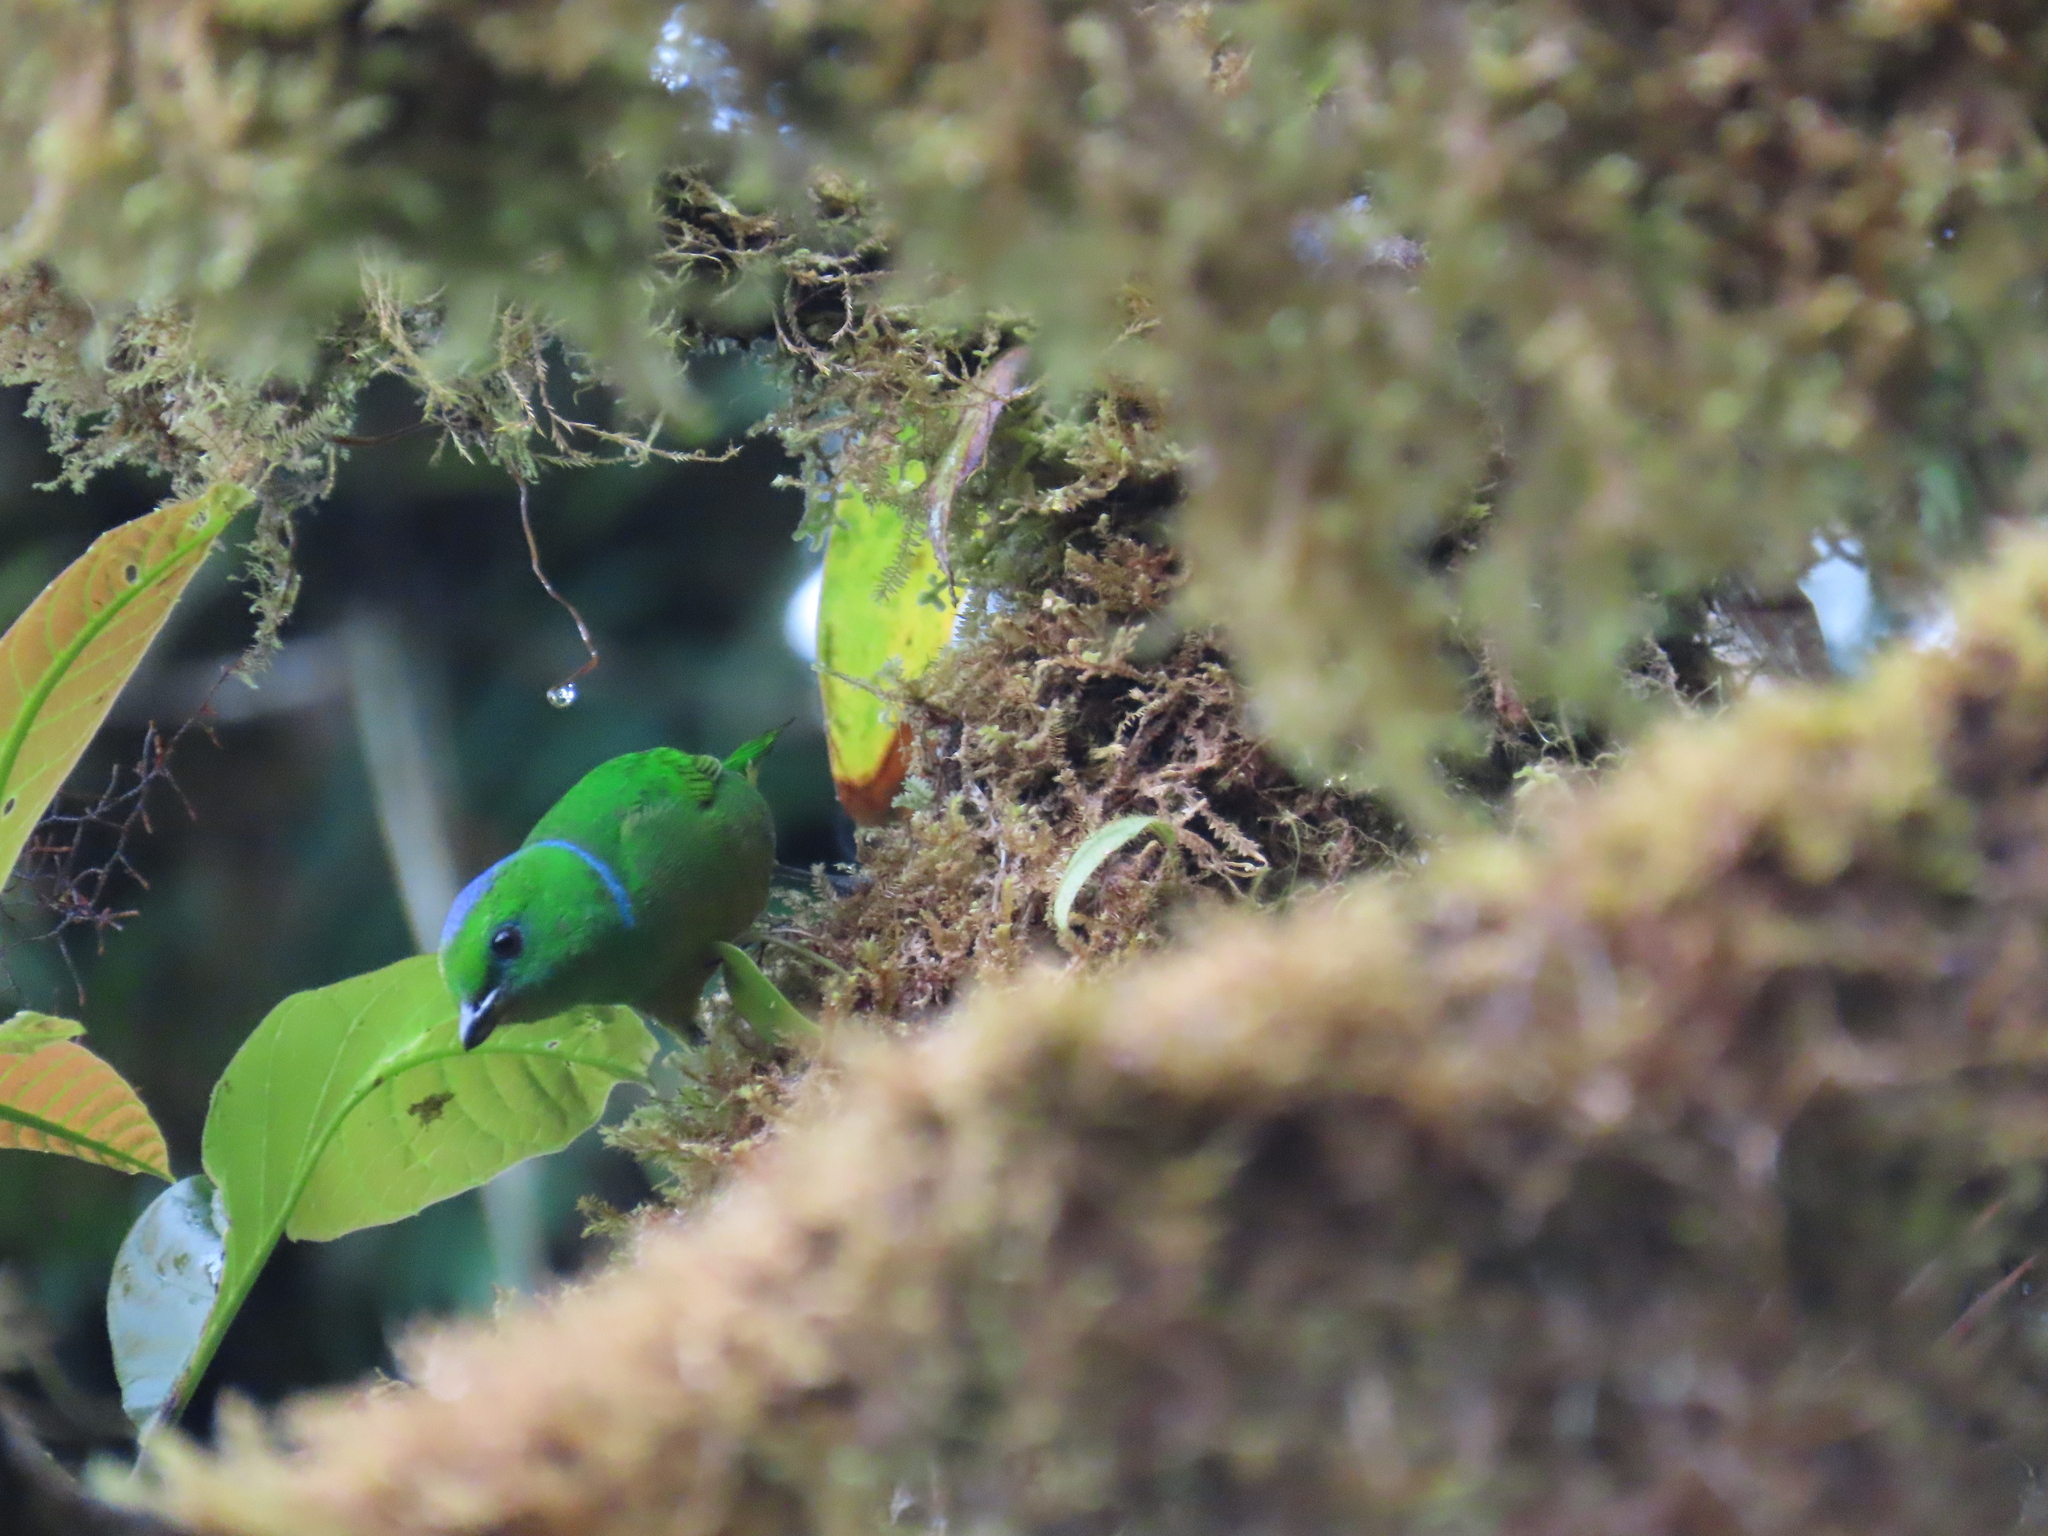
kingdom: Animalia
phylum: Chordata
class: Aves
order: Passeriformes
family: Fringillidae
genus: Chlorophonia
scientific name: Chlorophonia callophrys
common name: Golden-browed chlorophonia
